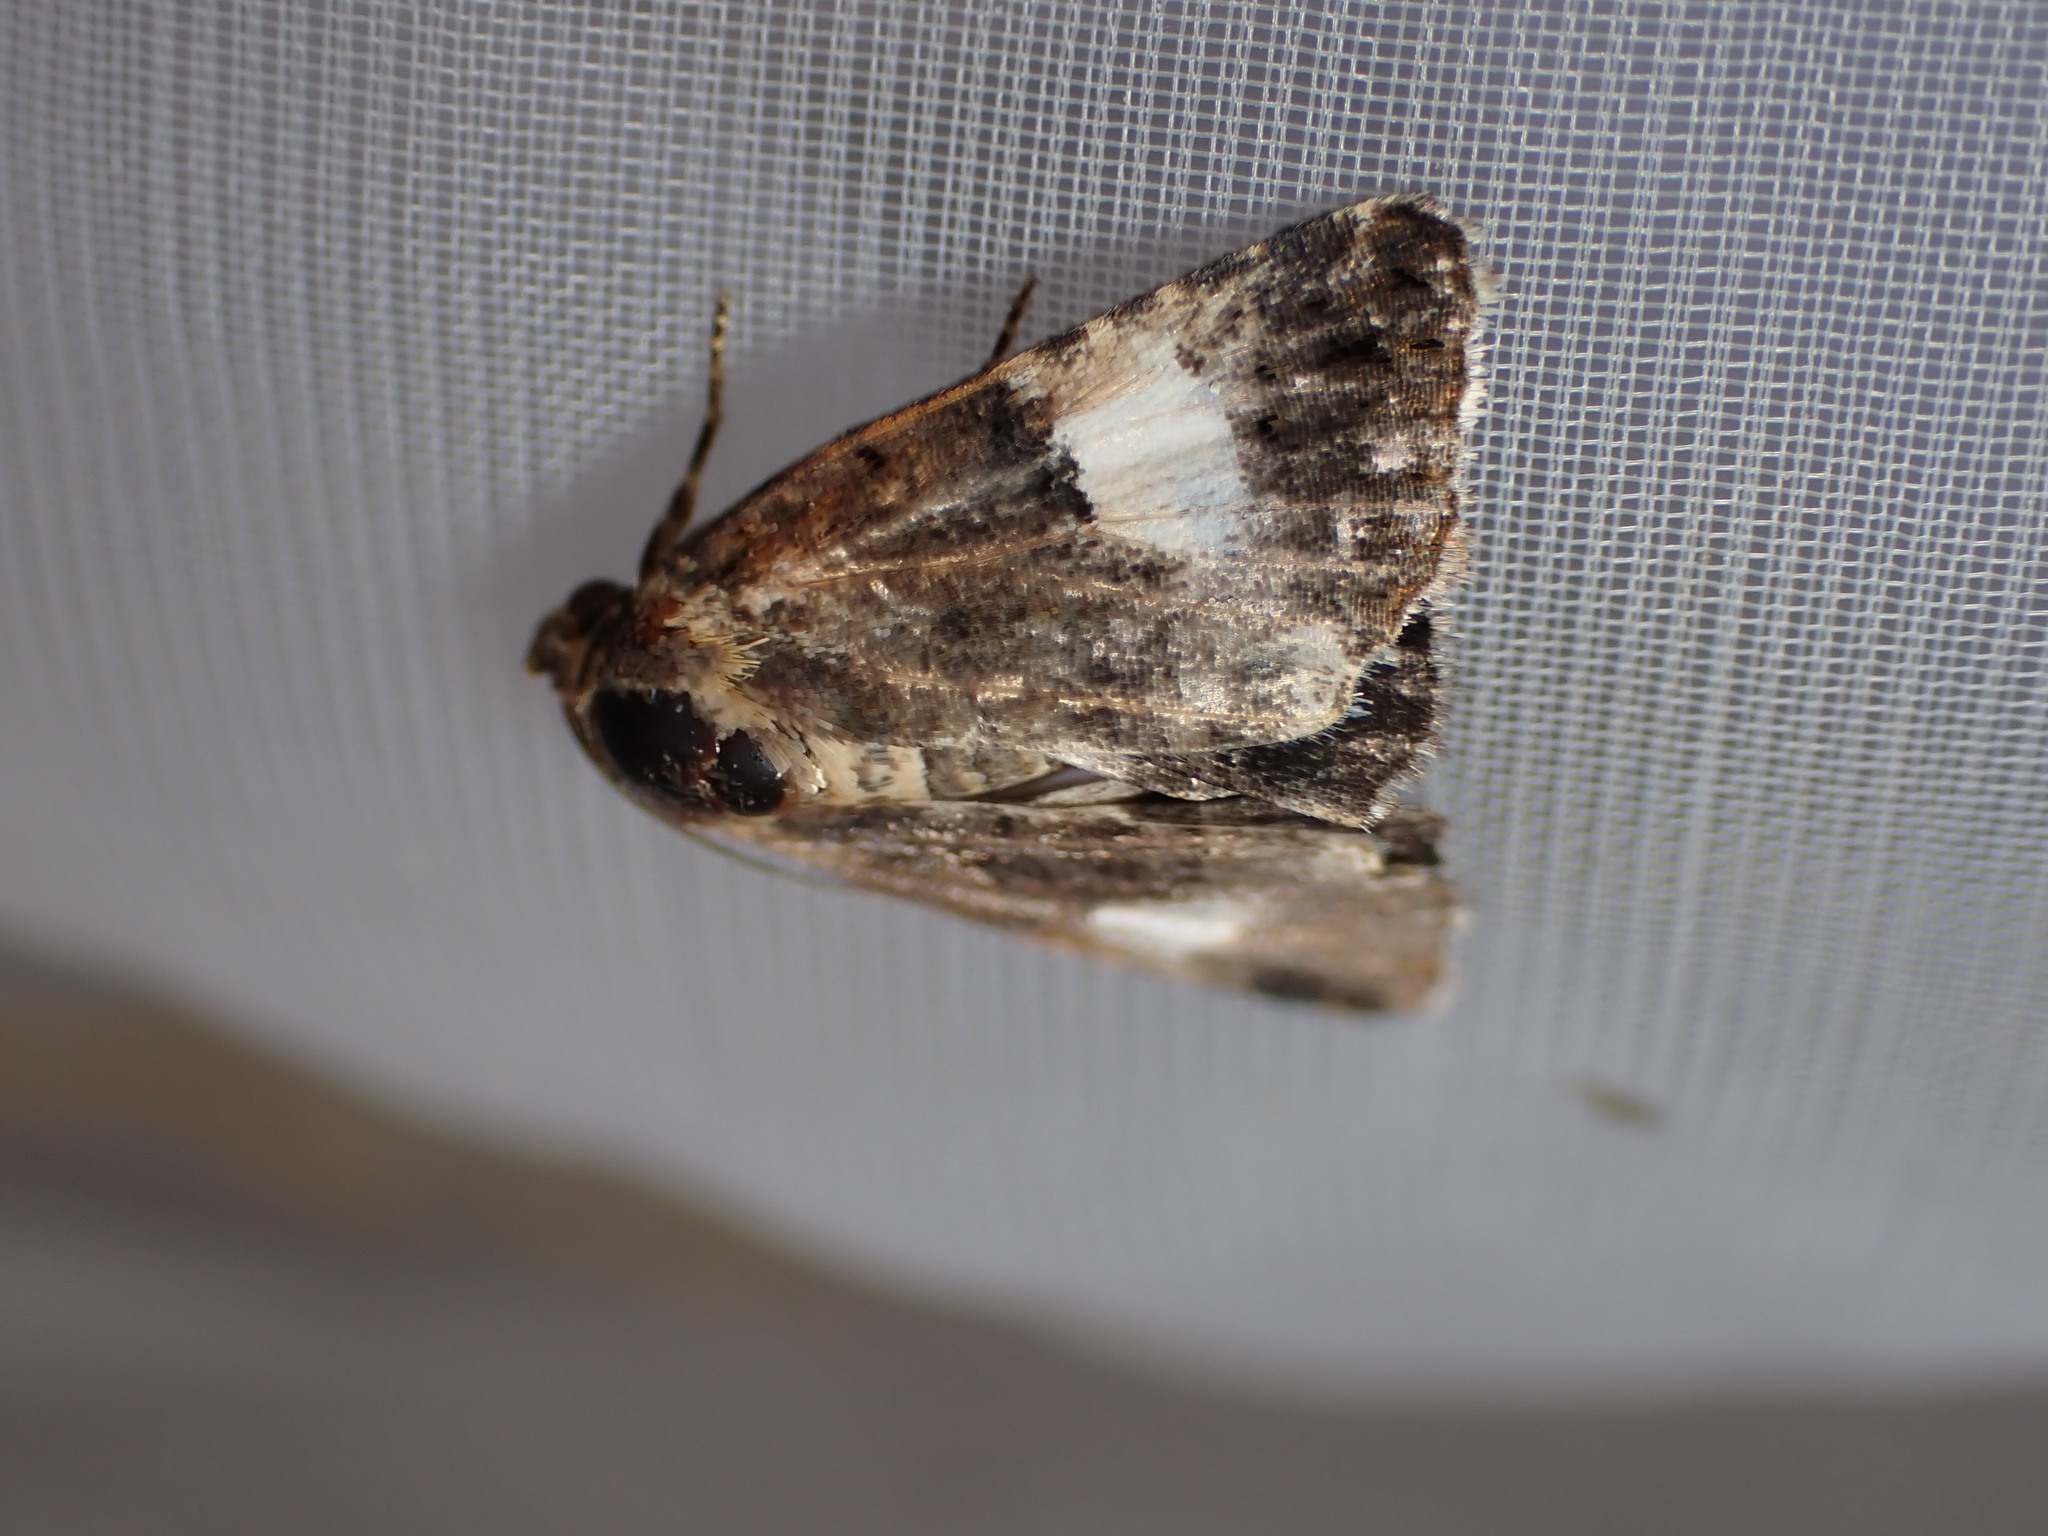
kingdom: Animalia
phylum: Arthropoda
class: Insecta
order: Lepidoptera
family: Erebidae
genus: Tyta
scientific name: Tyta luctuosa
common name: Four-spotted
